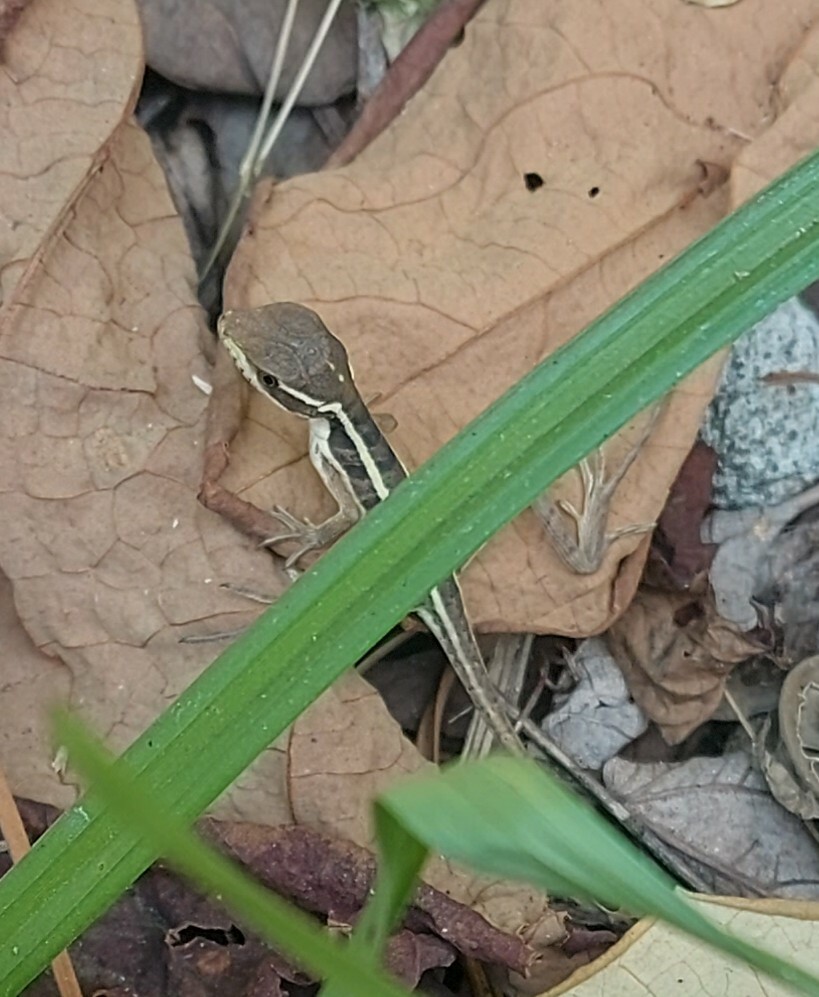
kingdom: Animalia
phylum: Chordata
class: Squamata
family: Corytophanidae
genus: Basiliscus
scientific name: Basiliscus vittatus
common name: Brown basilisk
